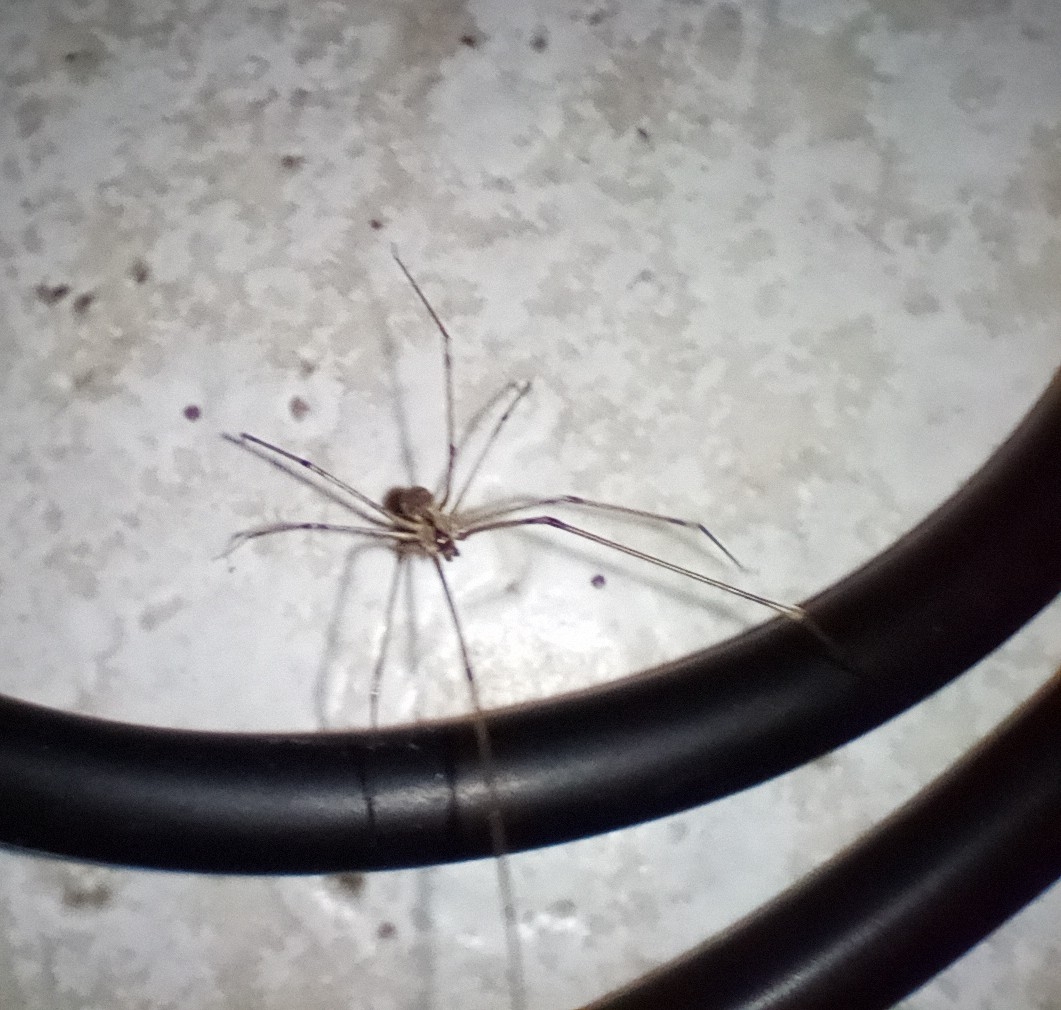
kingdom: Animalia
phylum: Arthropoda
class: Arachnida
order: Araneae
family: Pholcidae
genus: Holocnemus
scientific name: Holocnemus pluchei
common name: Marbled cellar spider
